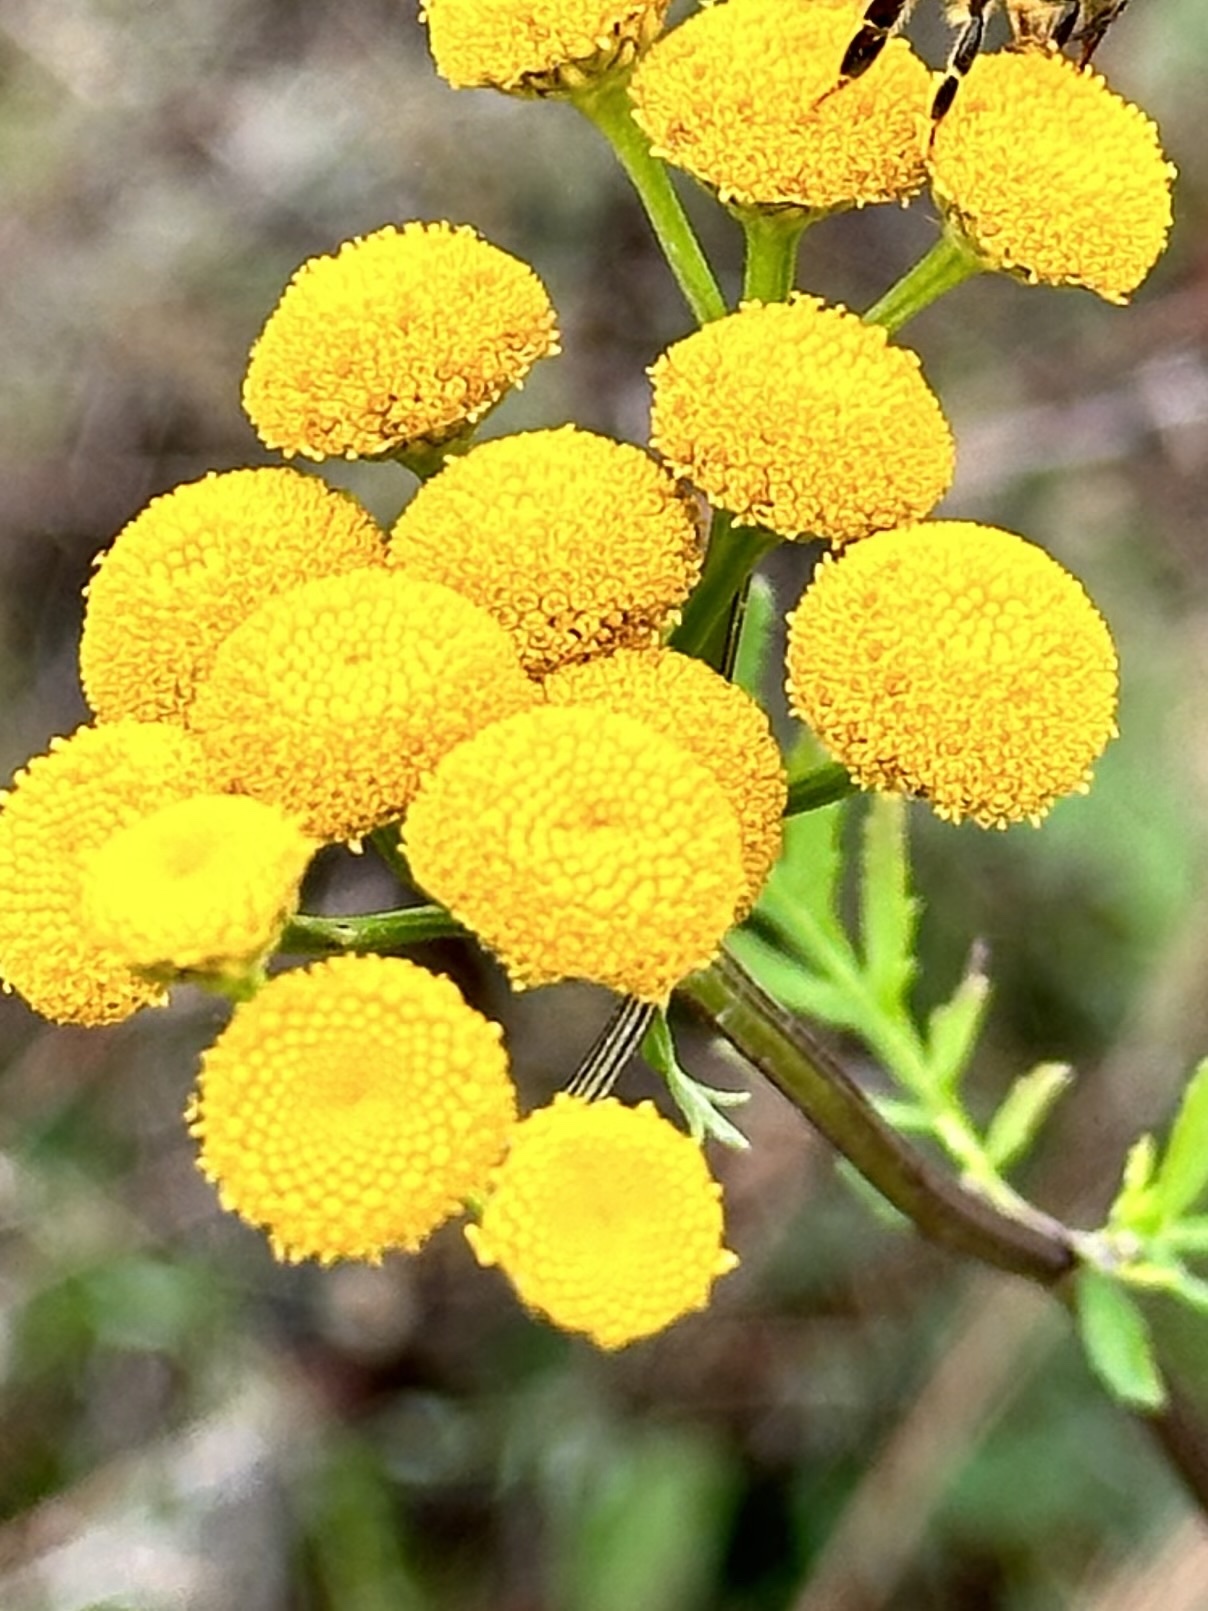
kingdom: Plantae
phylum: Tracheophyta
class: Magnoliopsida
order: Asterales
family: Asteraceae
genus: Tanacetum
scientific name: Tanacetum vulgare
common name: Common tansy
